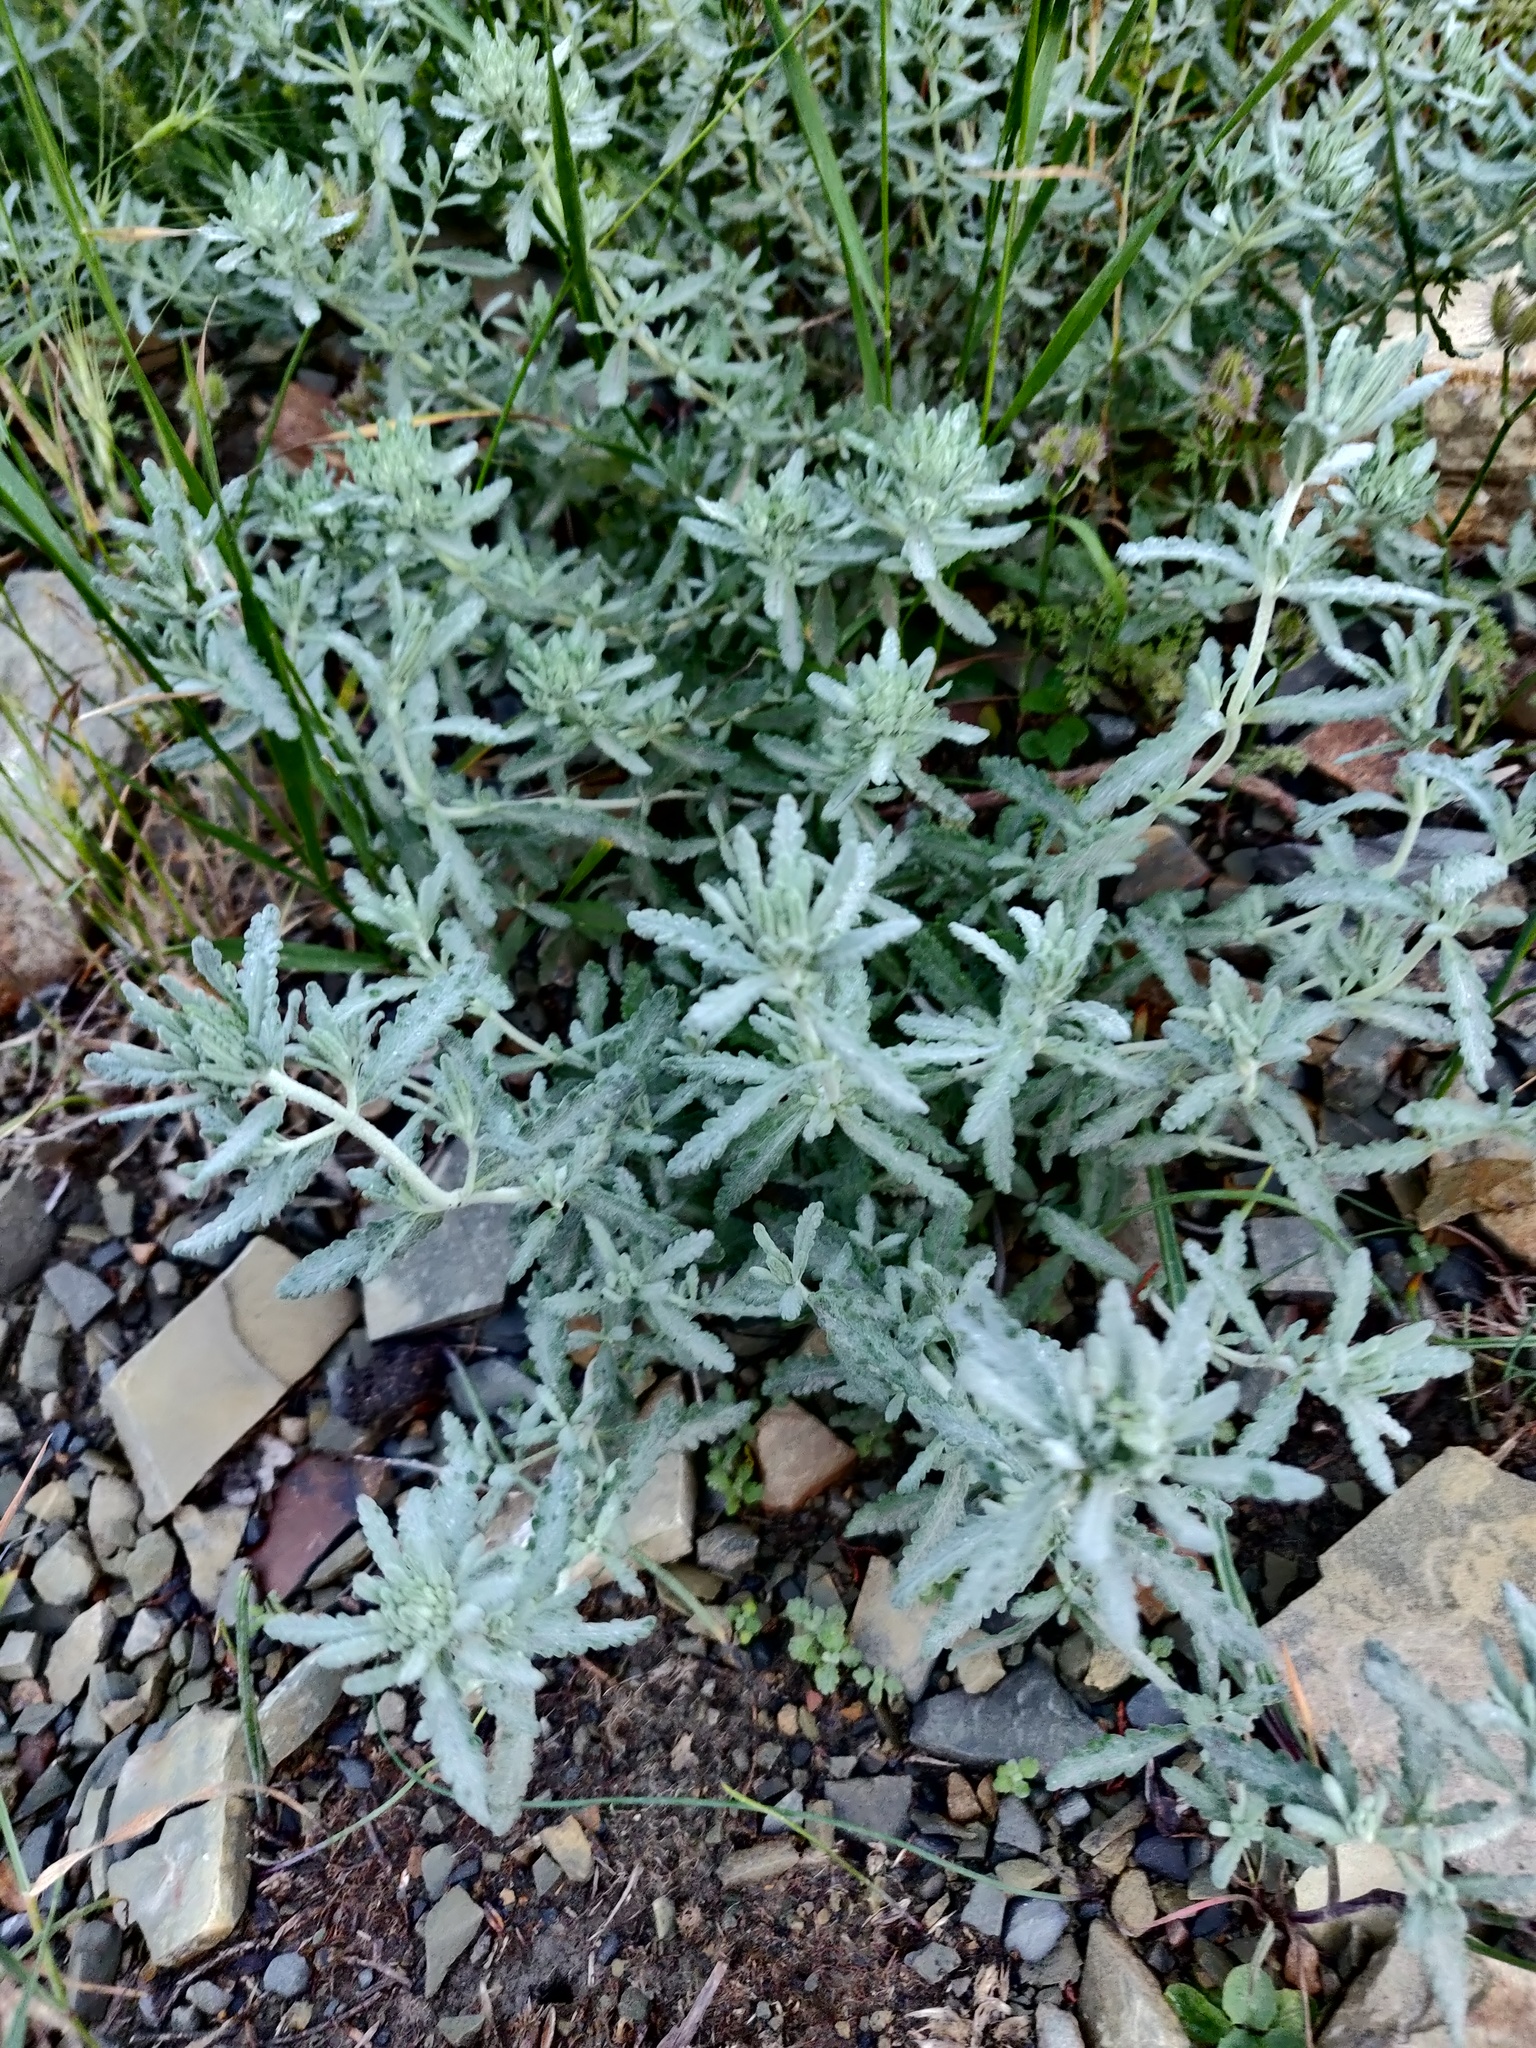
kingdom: Plantae
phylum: Tracheophyta
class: Magnoliopsida
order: Lamiales
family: Lamiaceae
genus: Teucrium
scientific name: Teucrium polium
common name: Poley
